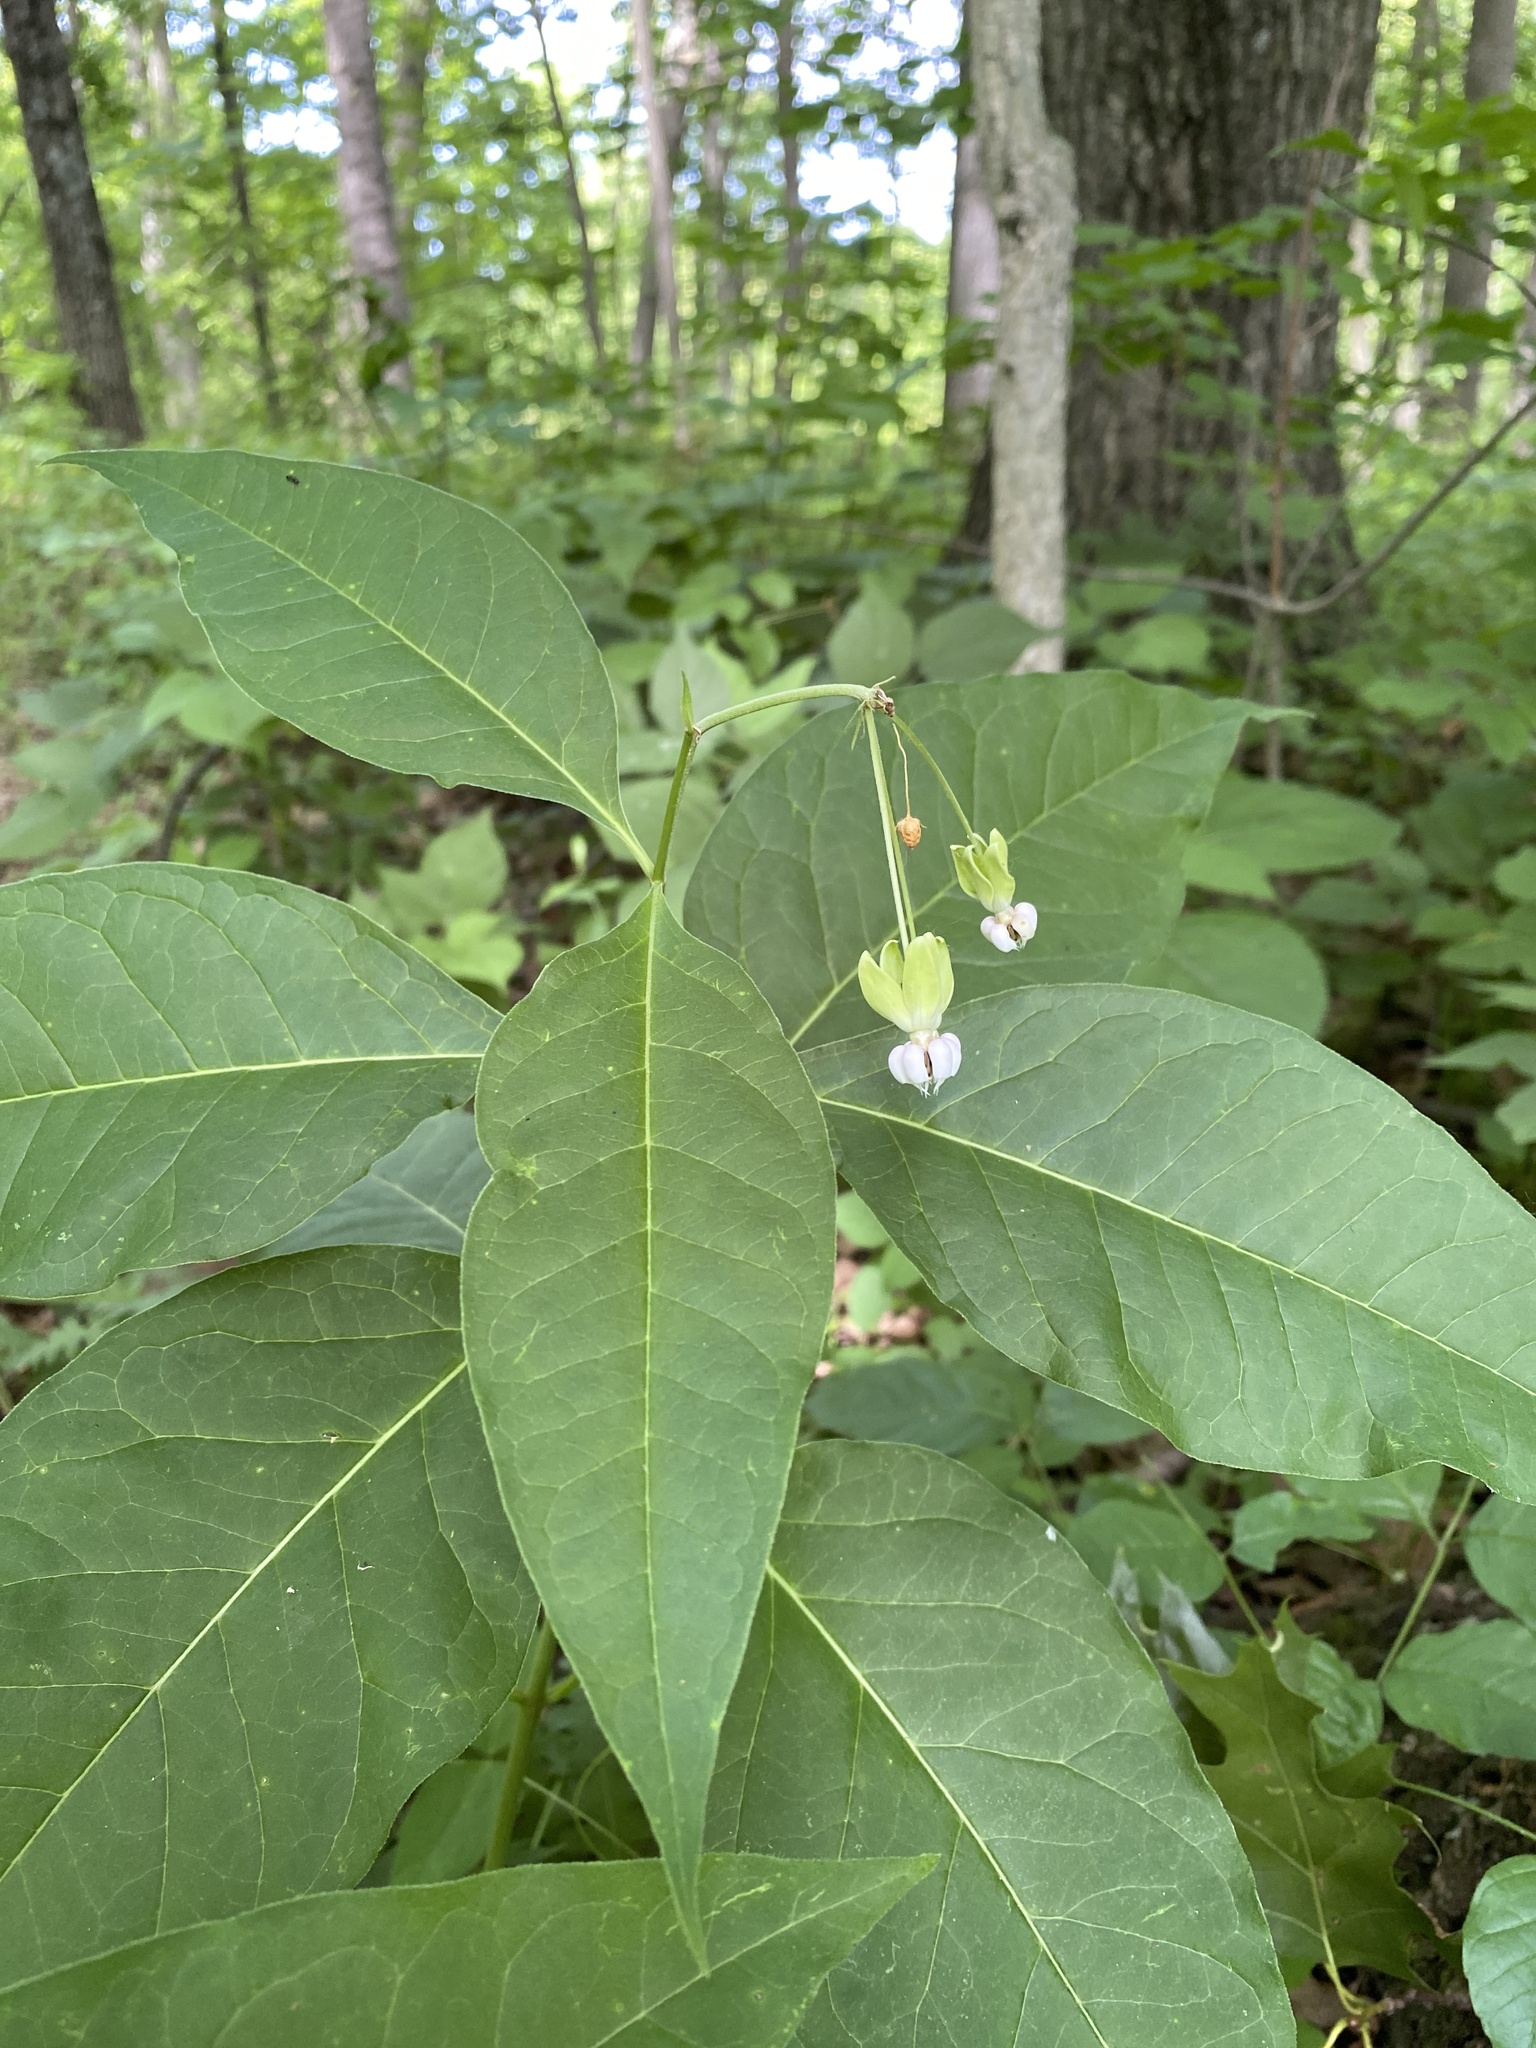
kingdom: Plantae
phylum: Tracheophyta
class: Magnoliopsida
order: Gentianales
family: Apocynaceae
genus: Asclepias
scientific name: Asclepias exaltata
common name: Poke milkweed
